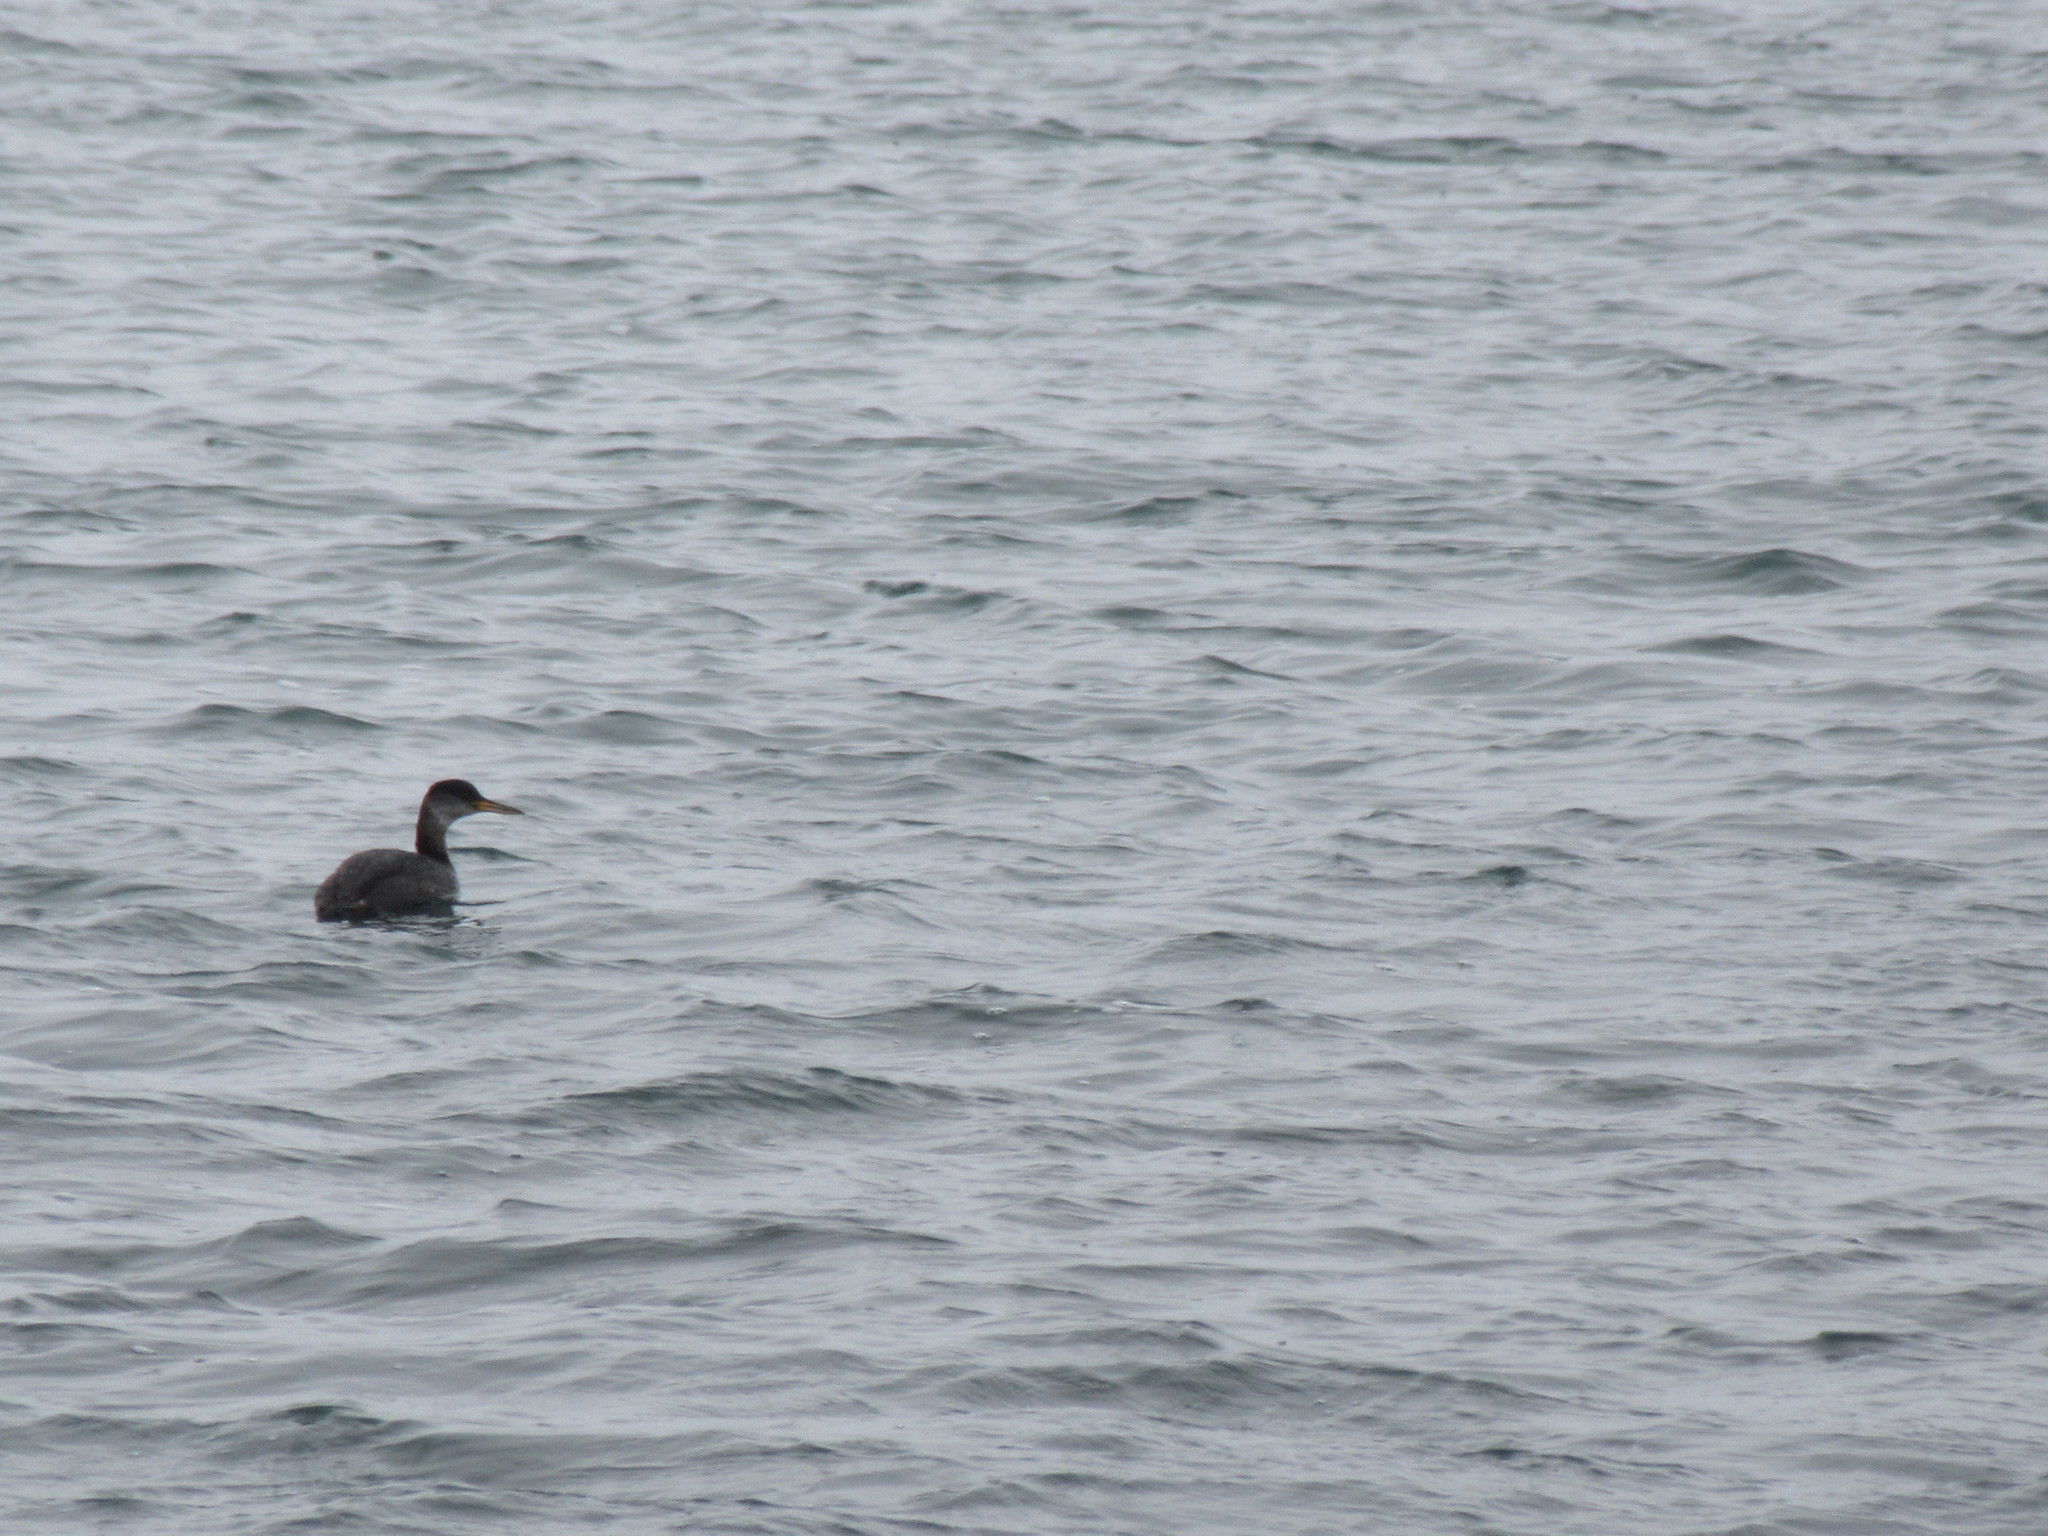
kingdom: Animalia
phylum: Chordata
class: Aves
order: Podicipediformes
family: Podicipedidae
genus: Podiceps
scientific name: Podiceps grisegena
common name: Red-necked grebe
